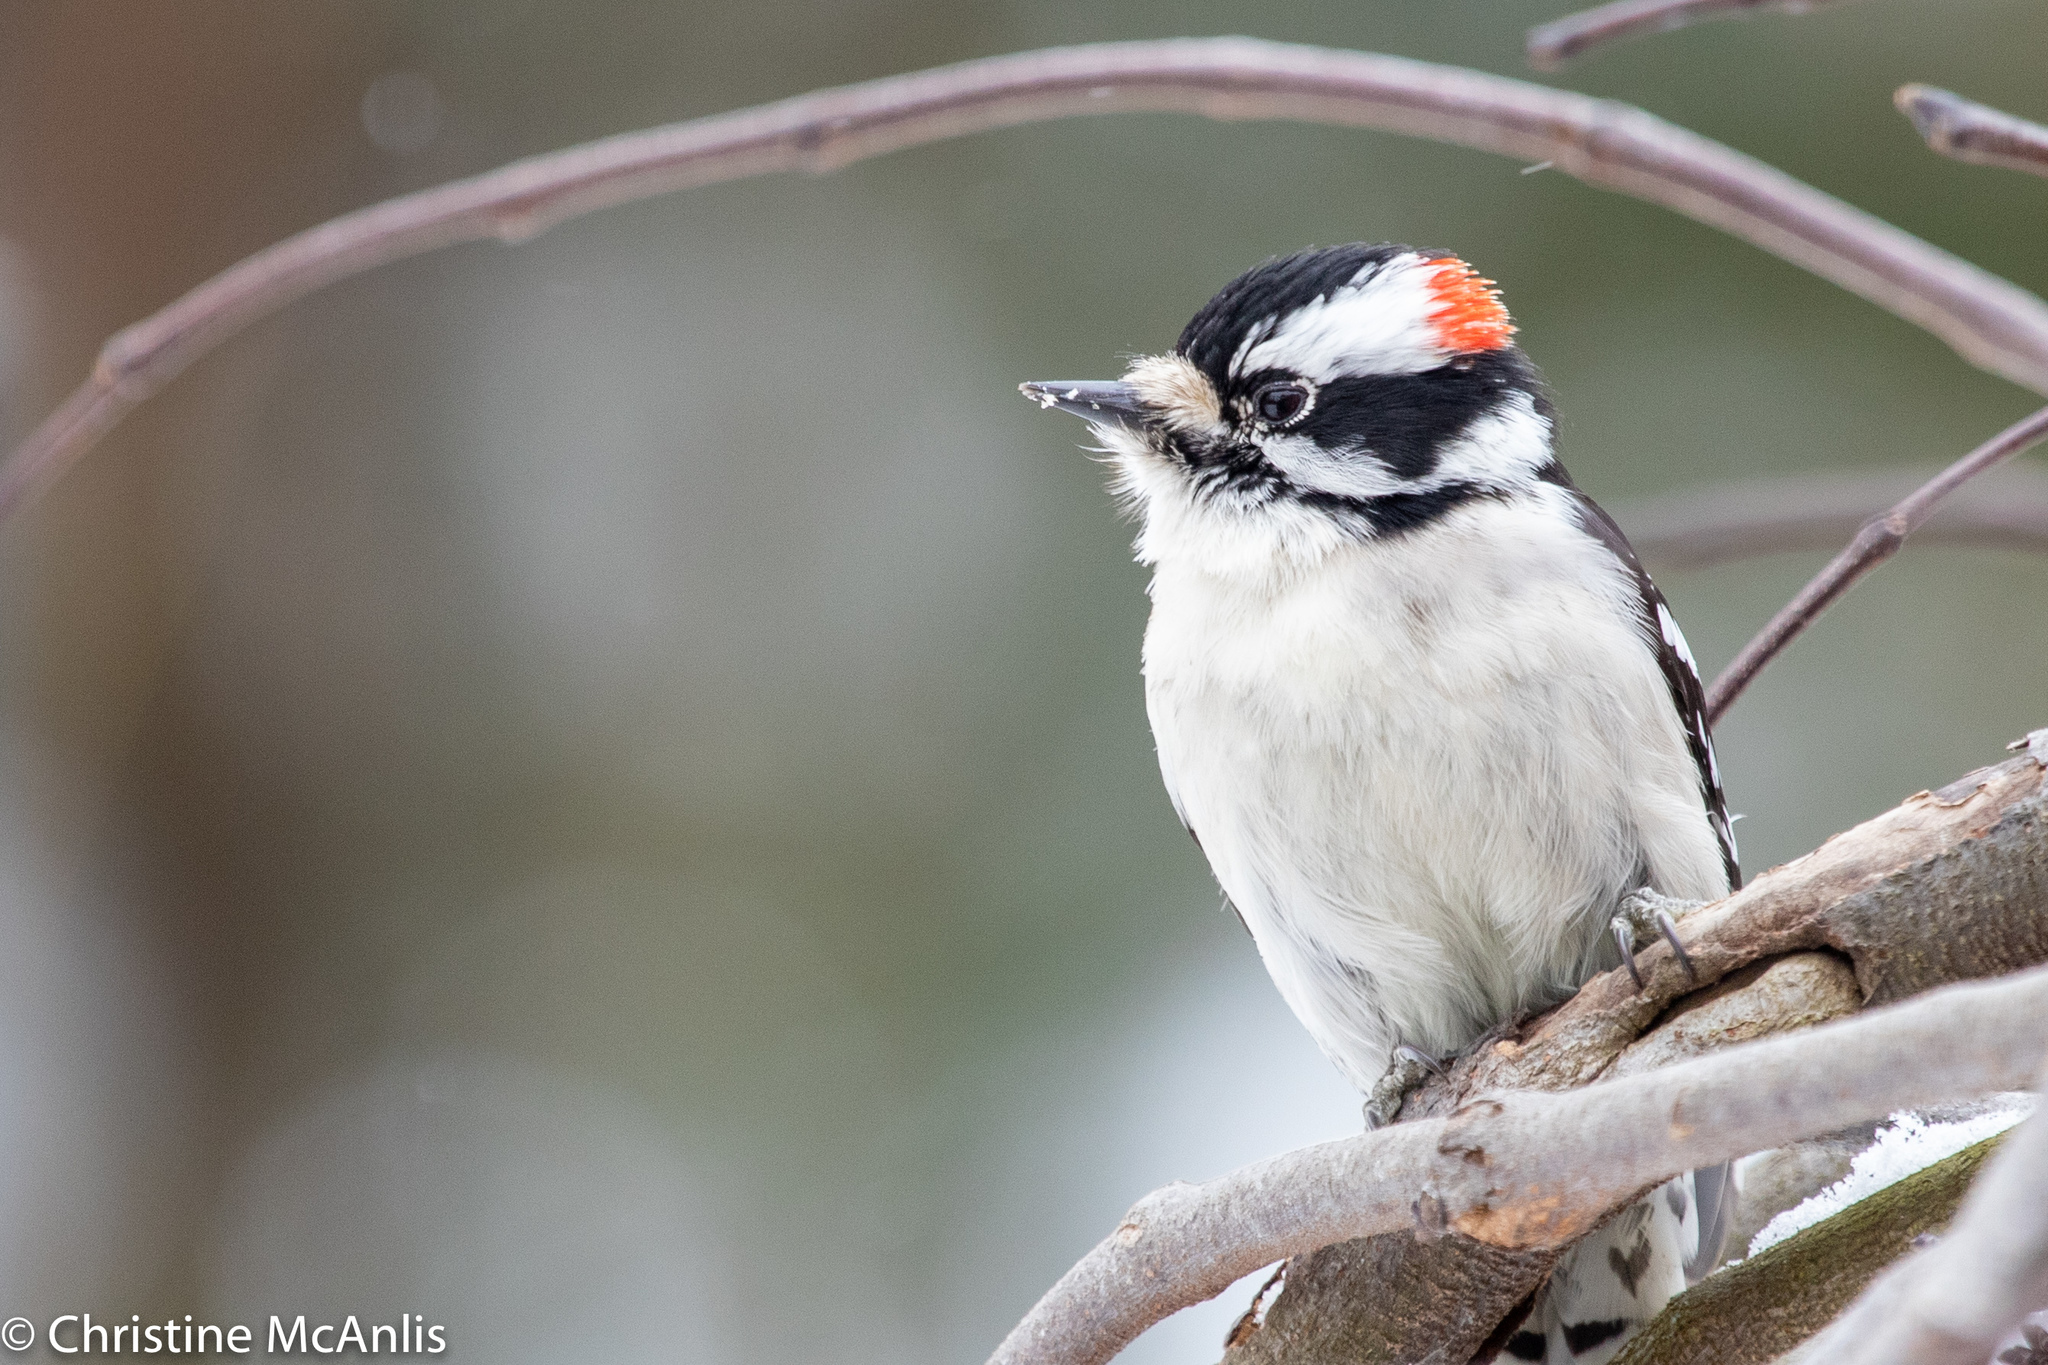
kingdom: Animalia
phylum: Chordata
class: Aves
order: Piciformes
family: Picidae
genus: Dryobates
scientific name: Dryobates pubescens
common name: Downy woodpecker
